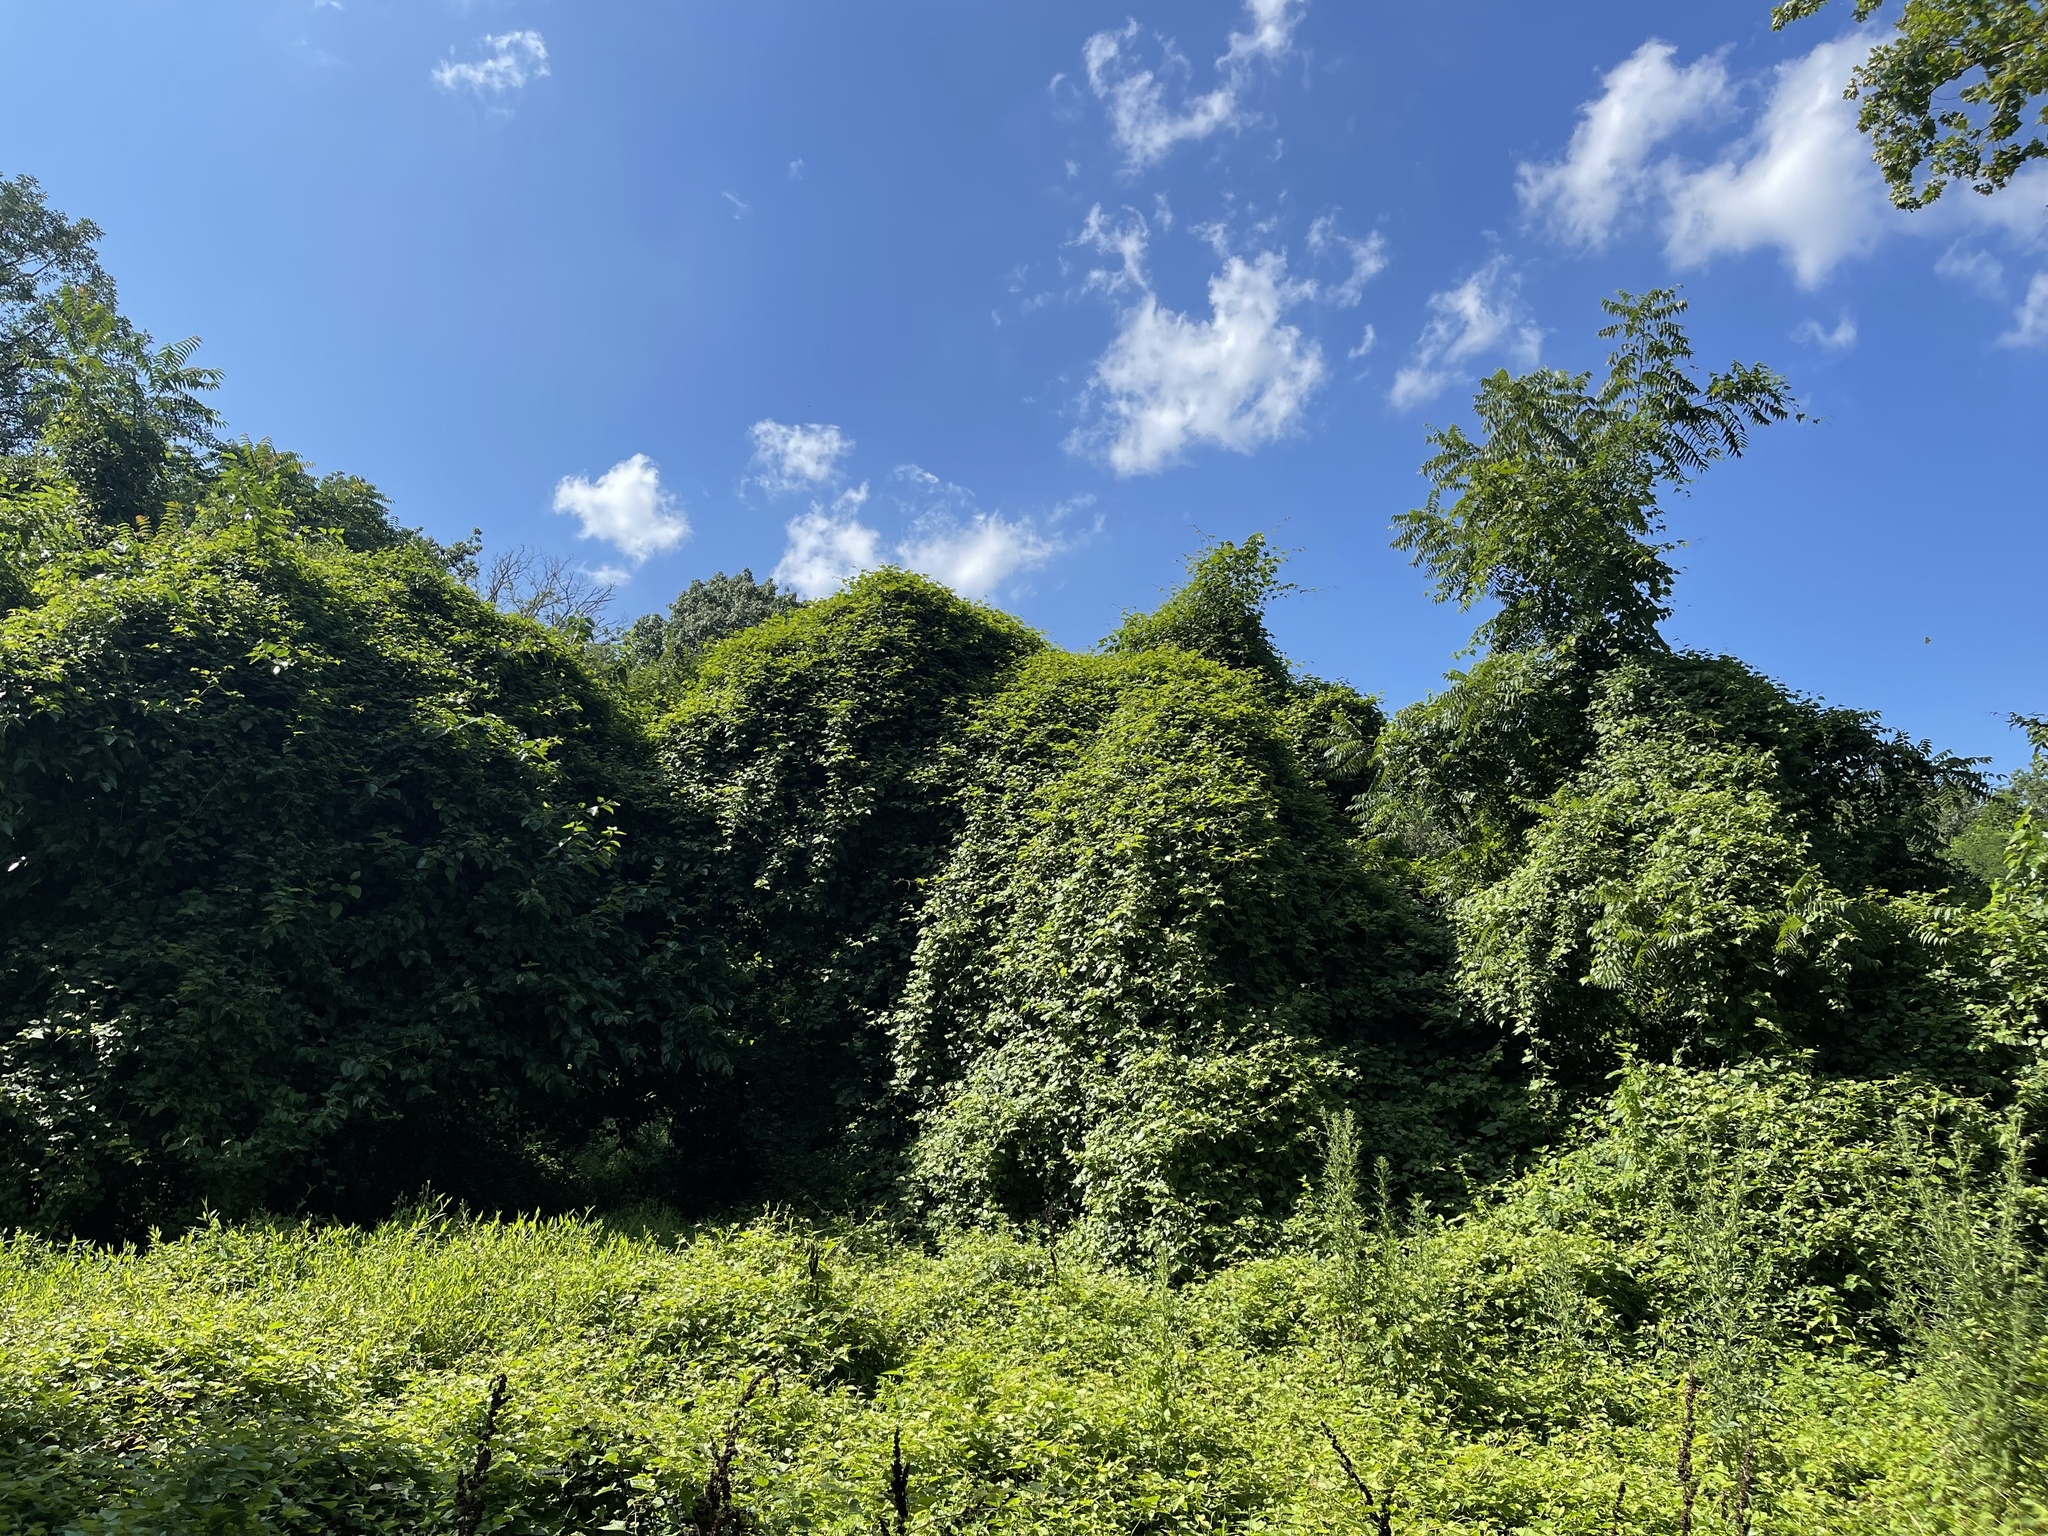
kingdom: Plantae
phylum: Tracheophyta
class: Magnoliopsida
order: Fabales
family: Fabaceae
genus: Pueraria
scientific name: Pueraria montana
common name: Kudzu
